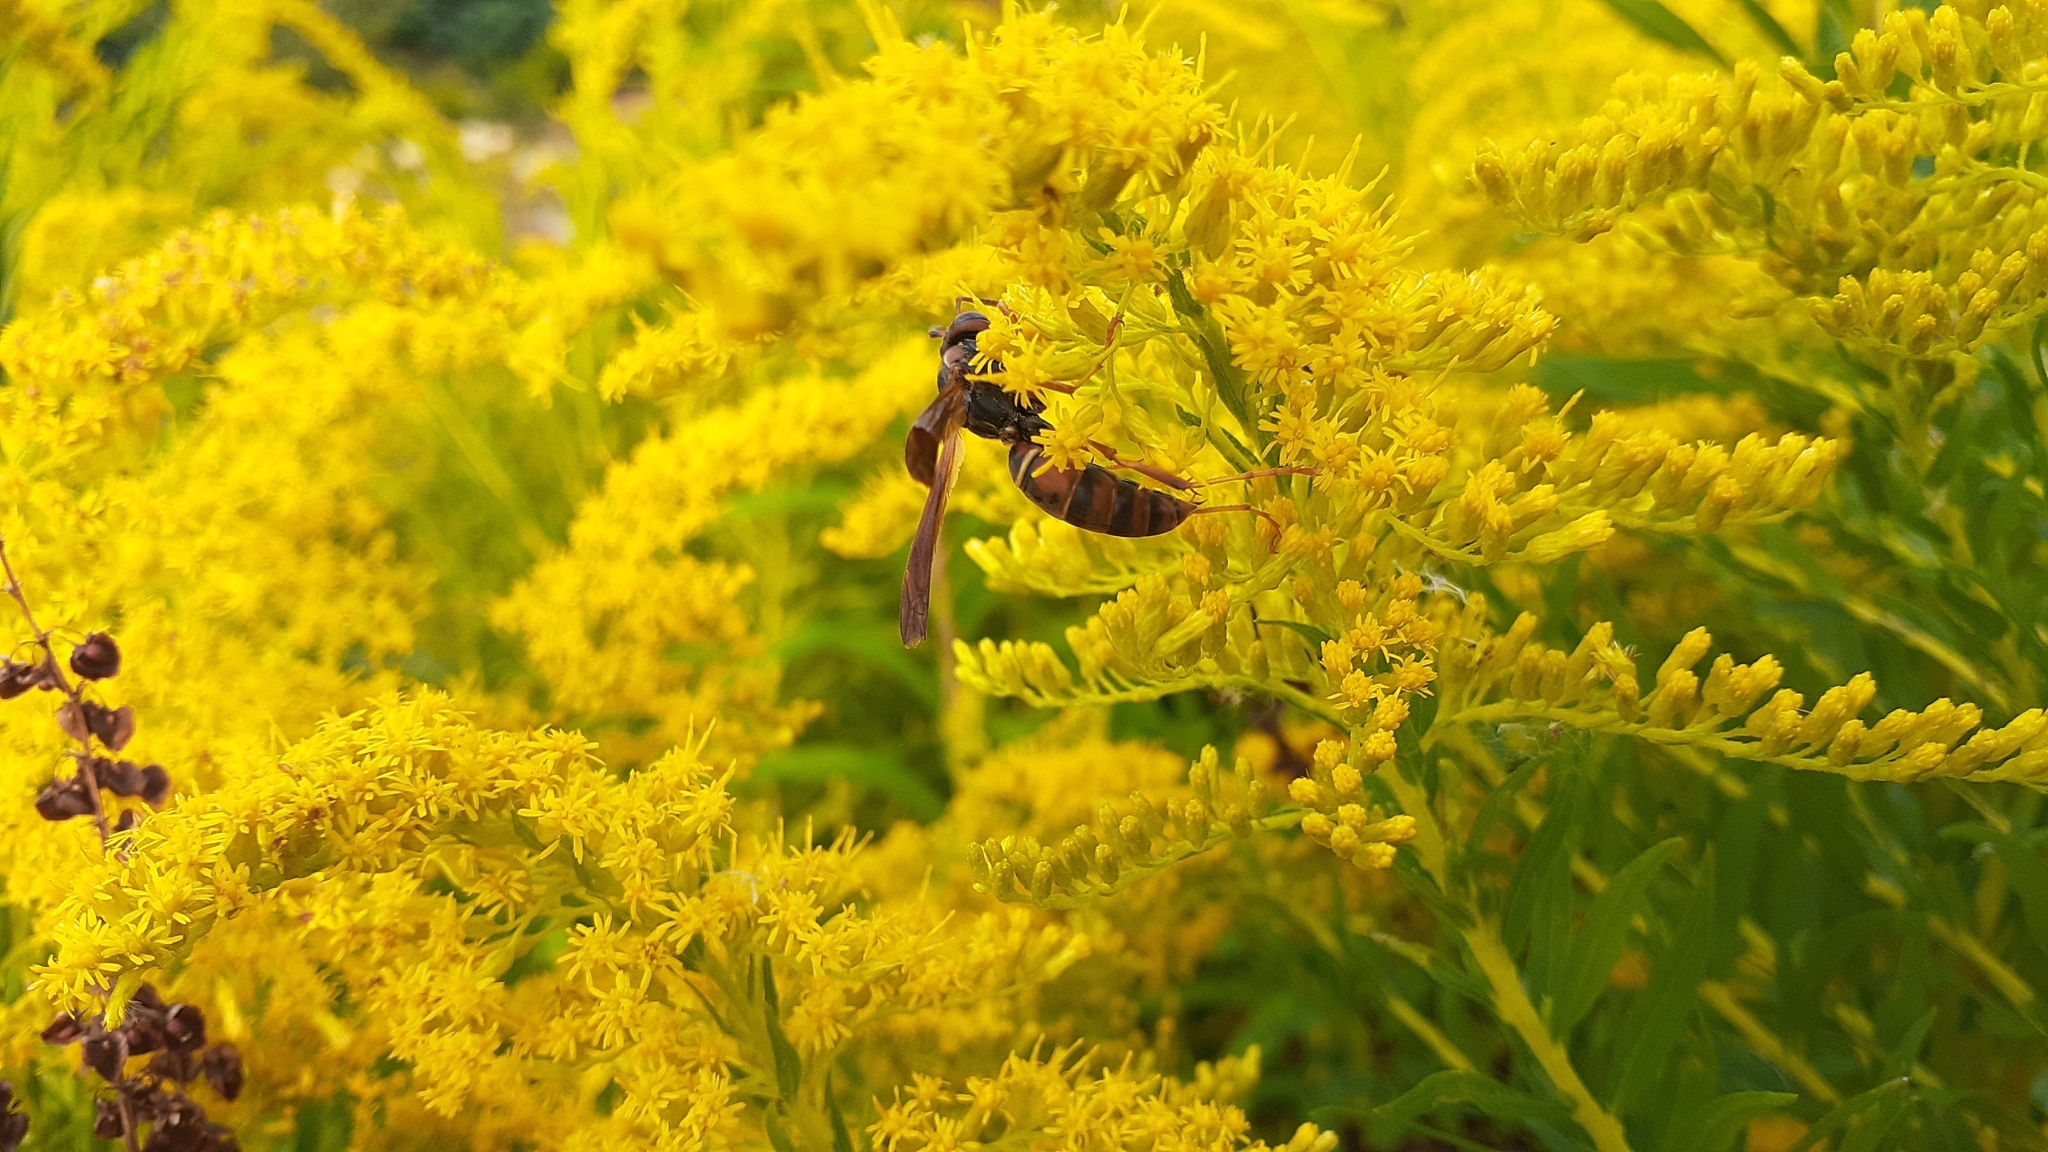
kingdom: Animalia
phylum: Arthropoda
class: Insecta
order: Hymenoptera
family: Eumenidae
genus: Polistes
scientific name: Polistes fuscatus
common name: Dark paper wasp
